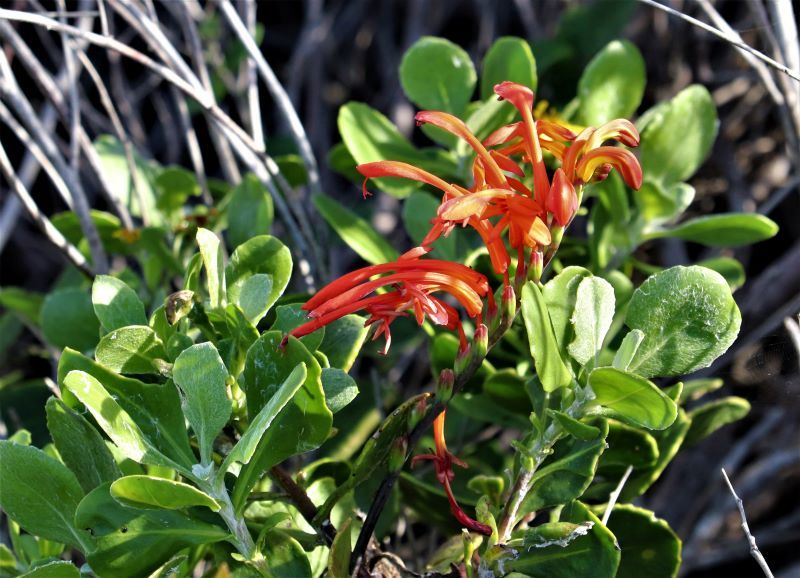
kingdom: Plantae
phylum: Tracheophyta
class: Liliopsida
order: Asparagales
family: Iridaceae
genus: Chasmanthe
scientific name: Chasmanthe aethiopica
